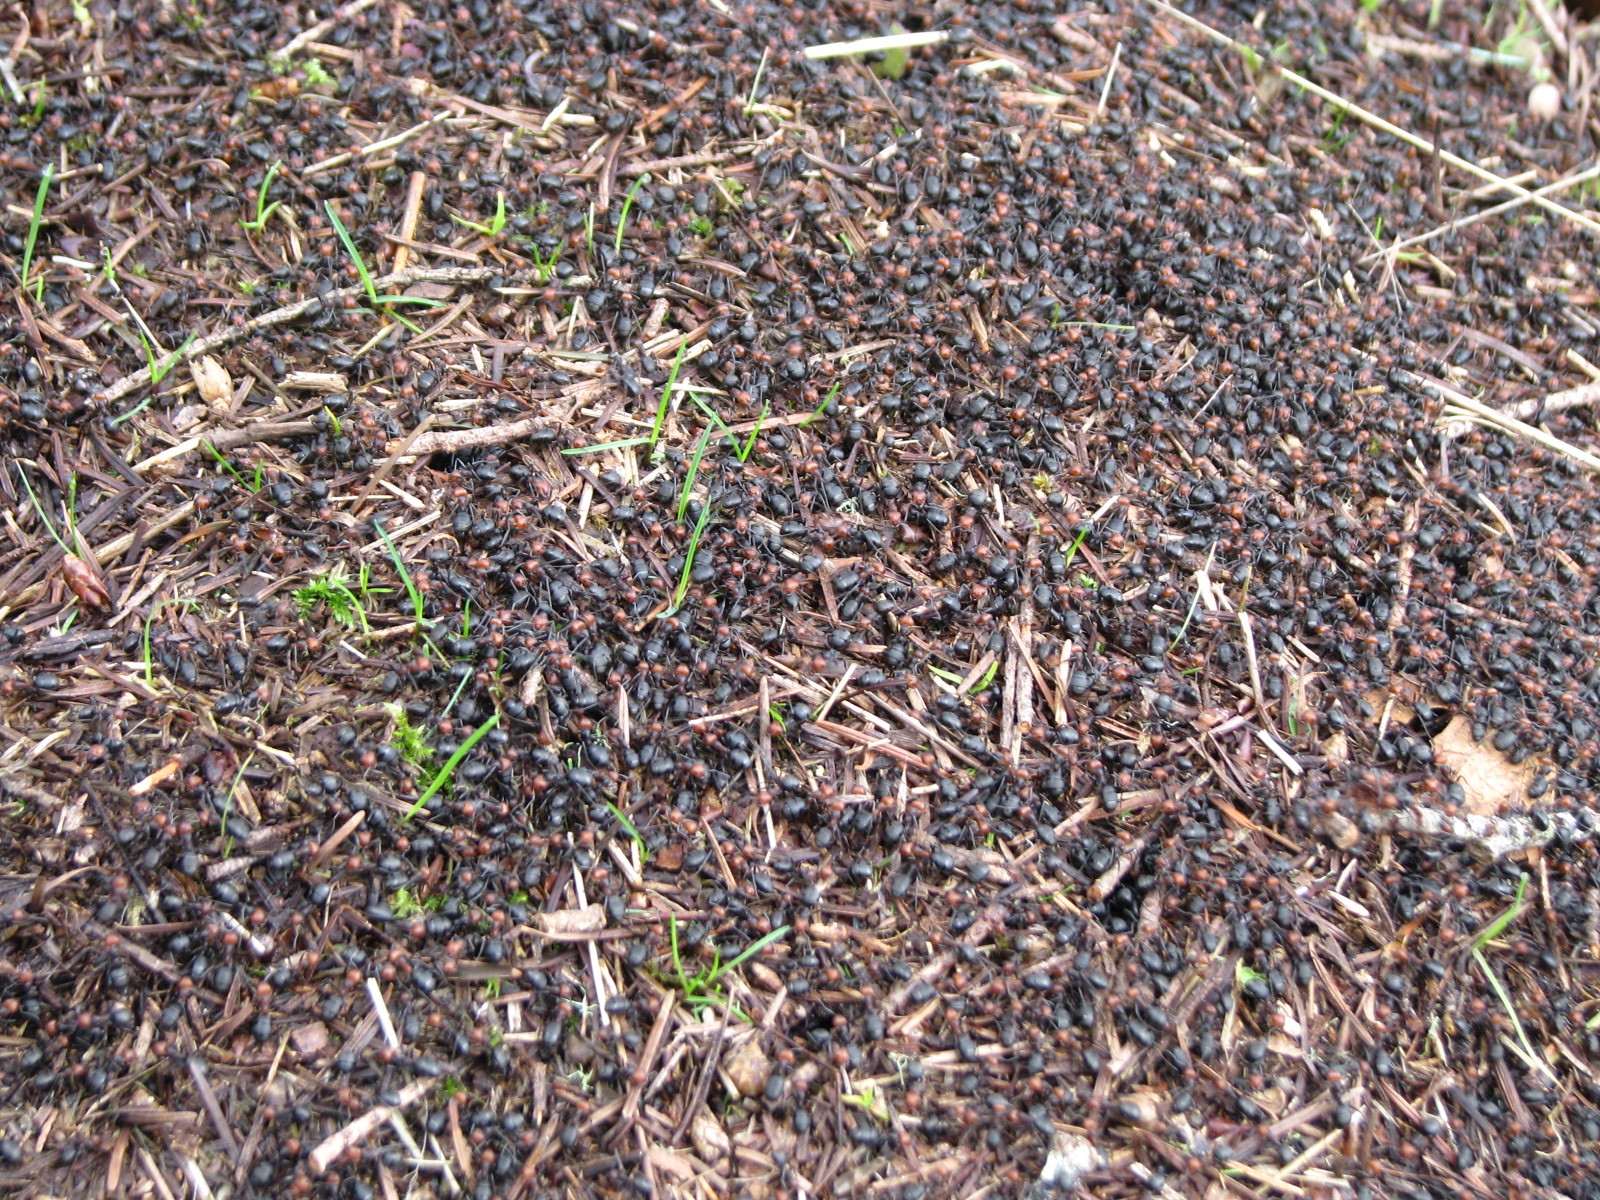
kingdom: Animalia
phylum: Arthropoda
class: Insecta
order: Hymenoptera
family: Formicidae
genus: Formica
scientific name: Formica obscuripes
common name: Western thatching ant
